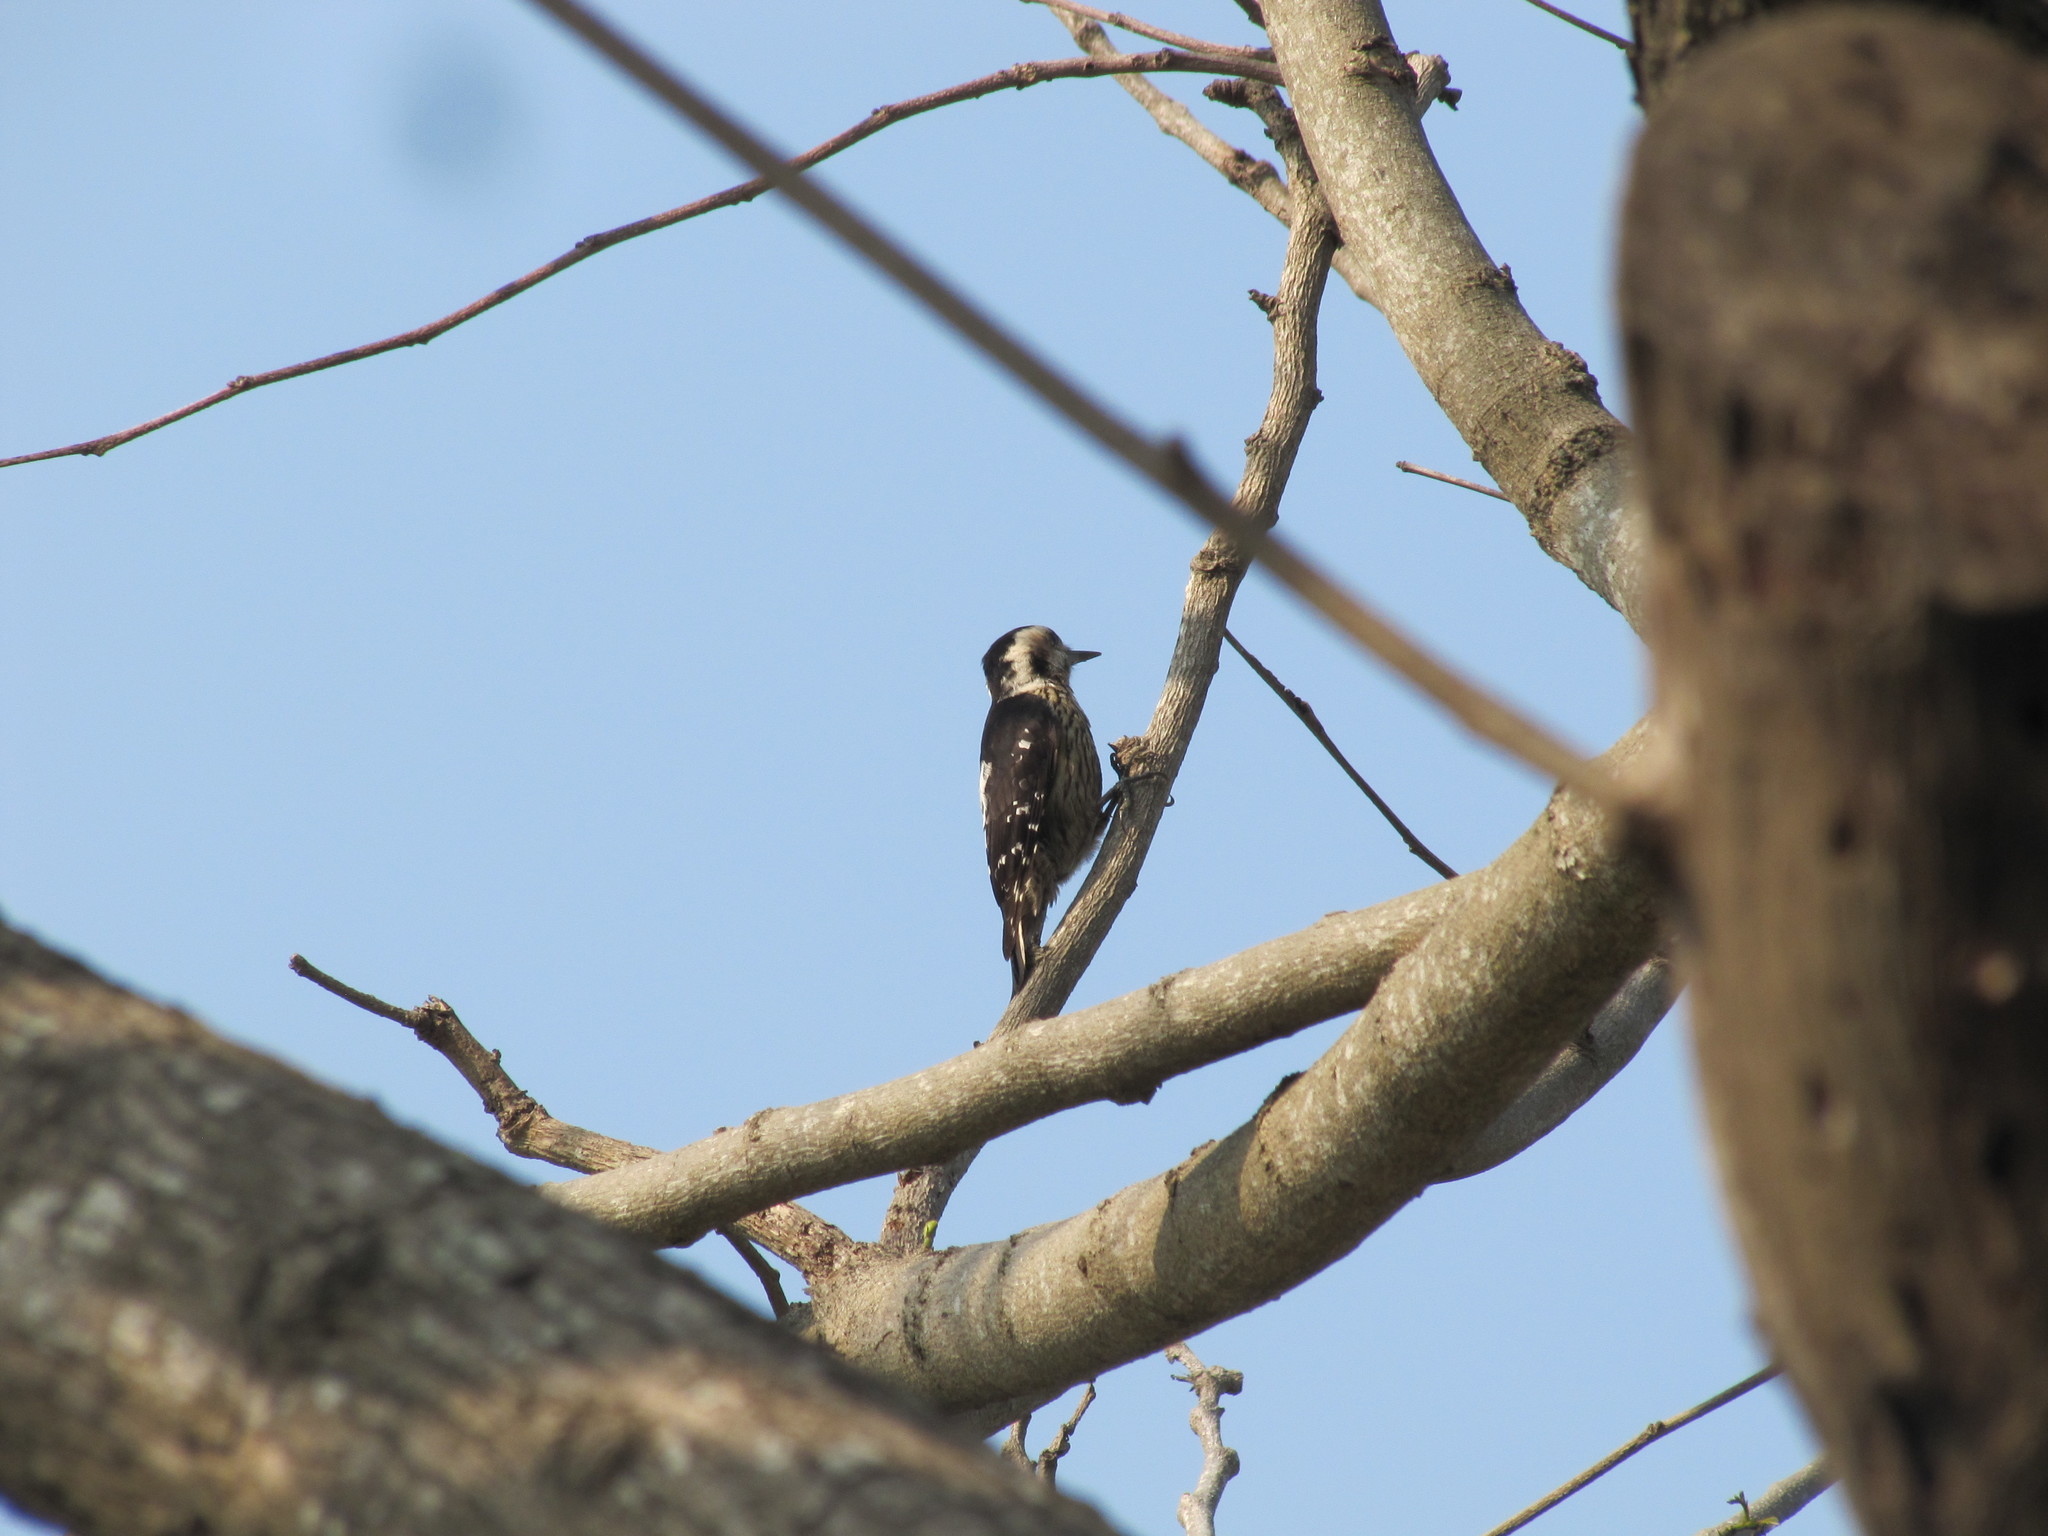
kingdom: Animalia
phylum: Chordata
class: Aves
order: Piciformes
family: Picidae
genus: Yungipicus
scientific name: Yungipicus canicapillus
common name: Grey-capped pygmy woodpecker
